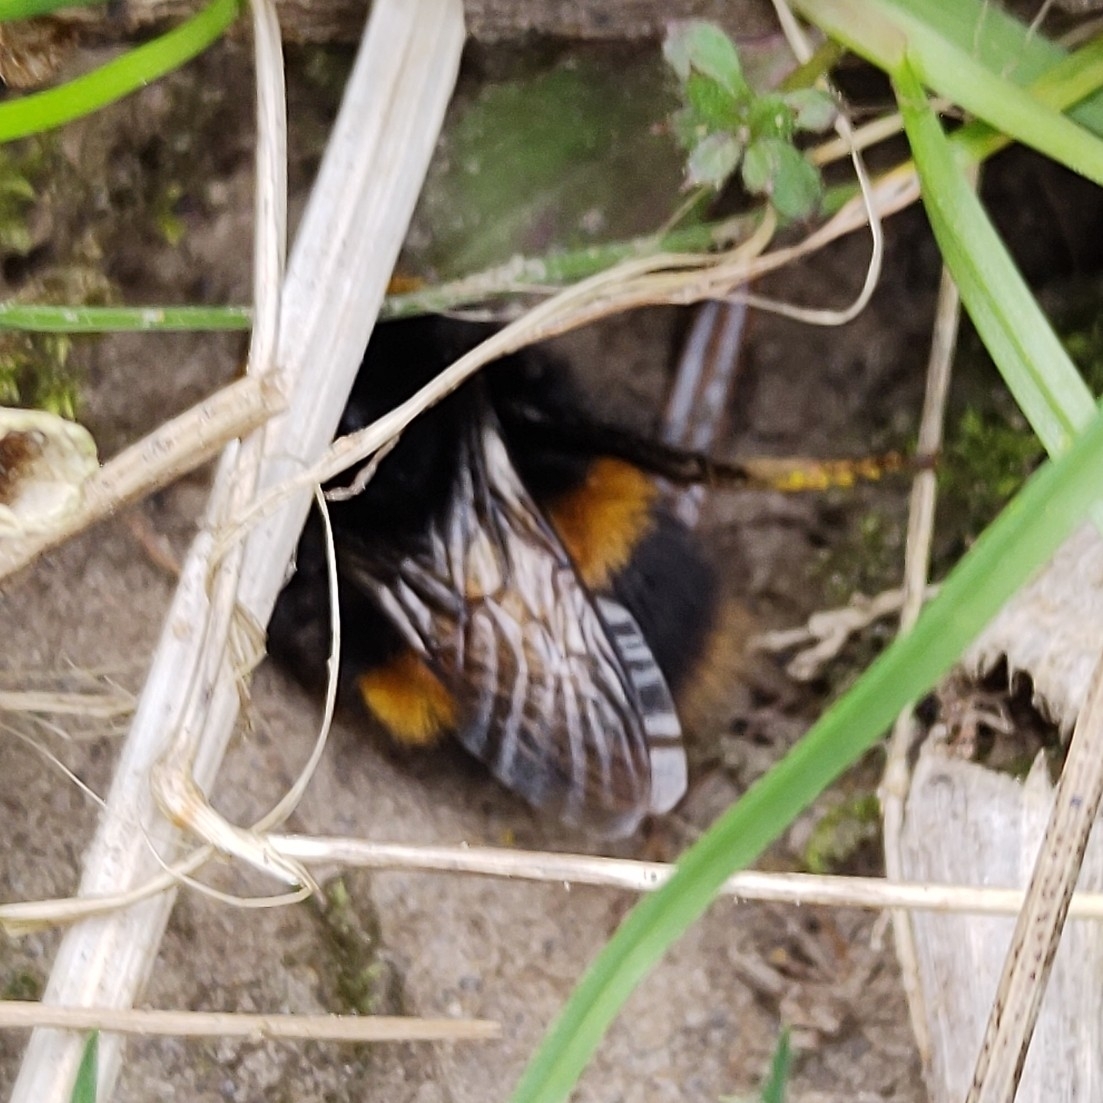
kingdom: Animalia
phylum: Arthropoda
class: Insecta
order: Hymenoptera
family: Apidae
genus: Bombus
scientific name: Bombus terrestris
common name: Buff-tailed bumblebee
